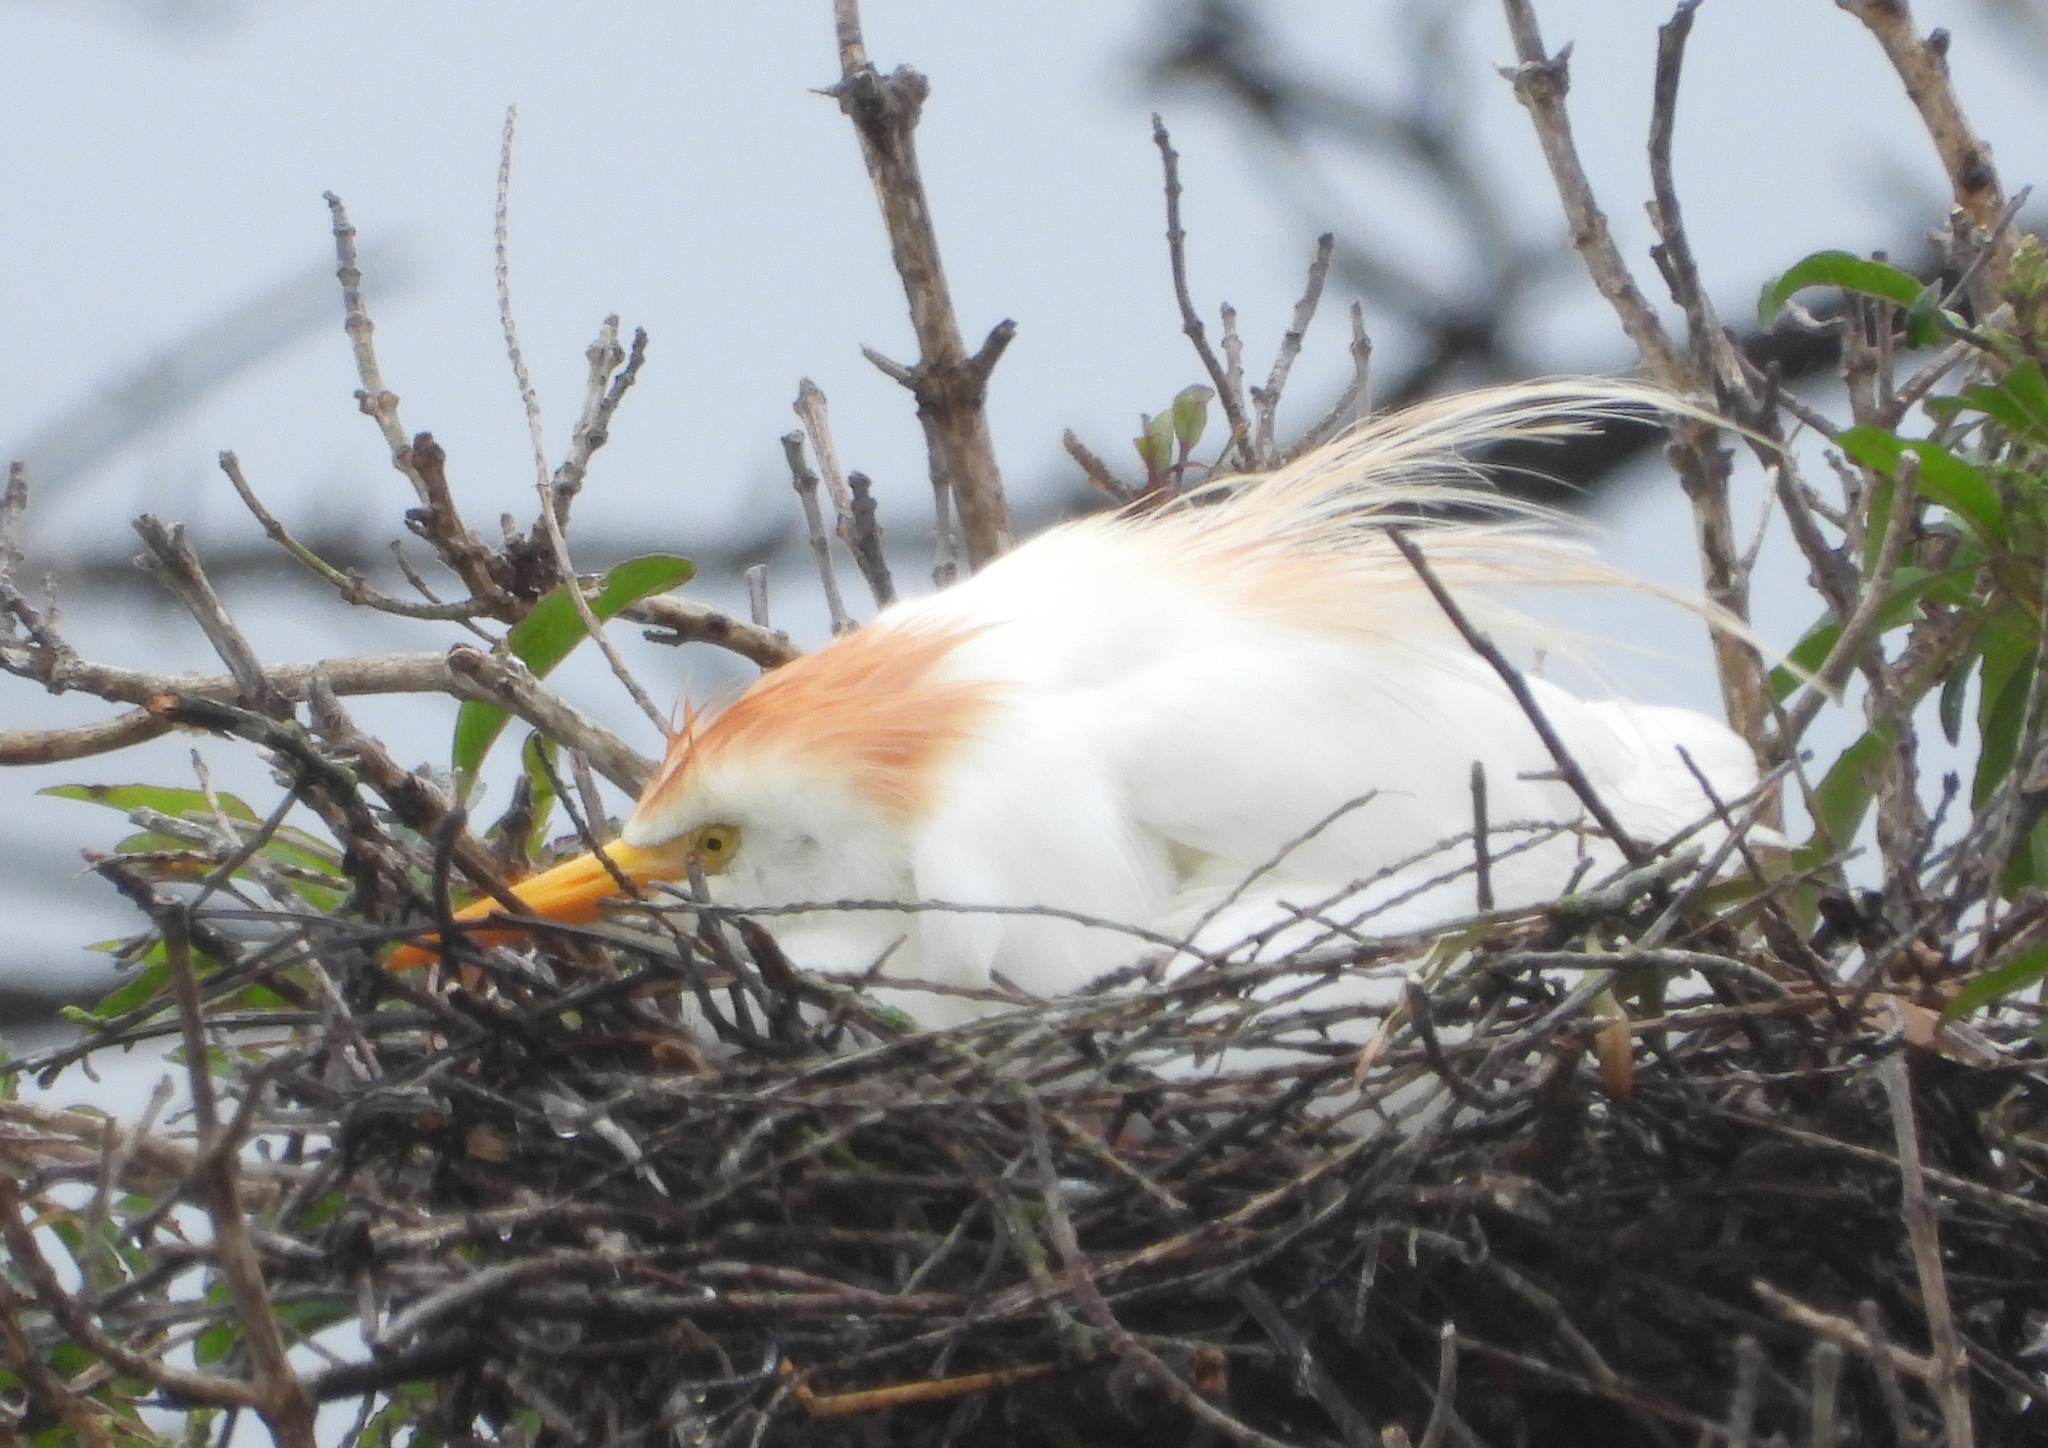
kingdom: Animalia
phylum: Chordata
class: Aves
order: Pelecaniformes
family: Ardeidae
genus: Bubulcus
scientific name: Bubulcus ibis
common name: Cattle egret
